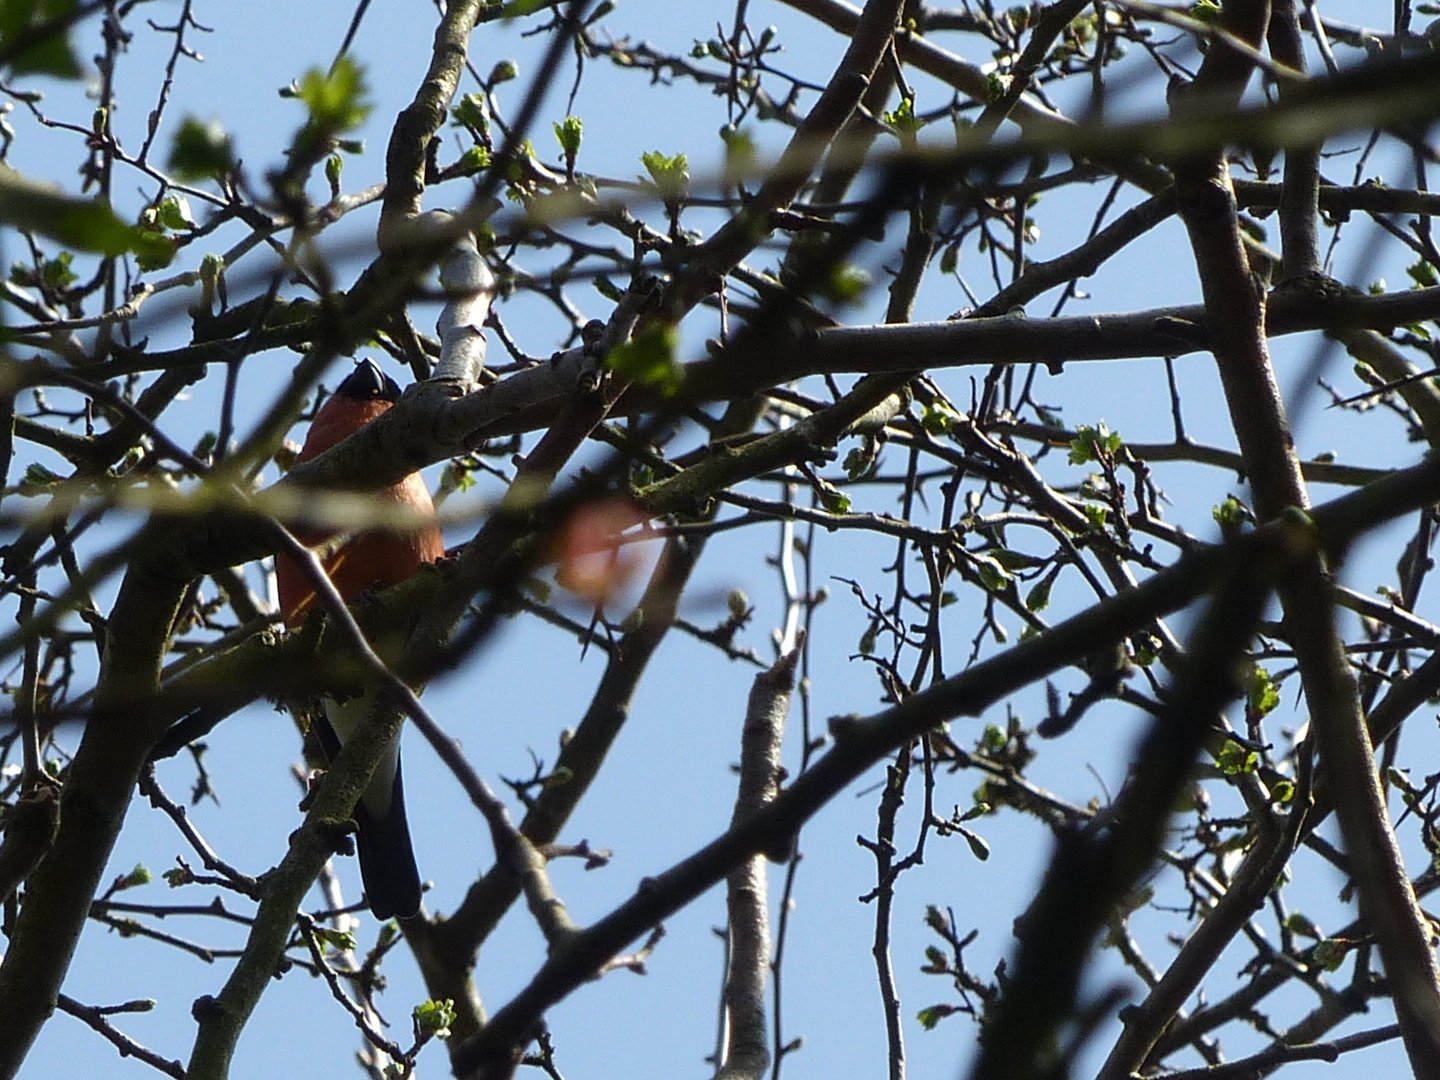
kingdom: Animalia
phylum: Chordata
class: Aves
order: Passeriformes
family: Fringillidae
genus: Pyrrhula
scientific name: Pyrrhula pyrrhula
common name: Eurasian bullfinch
